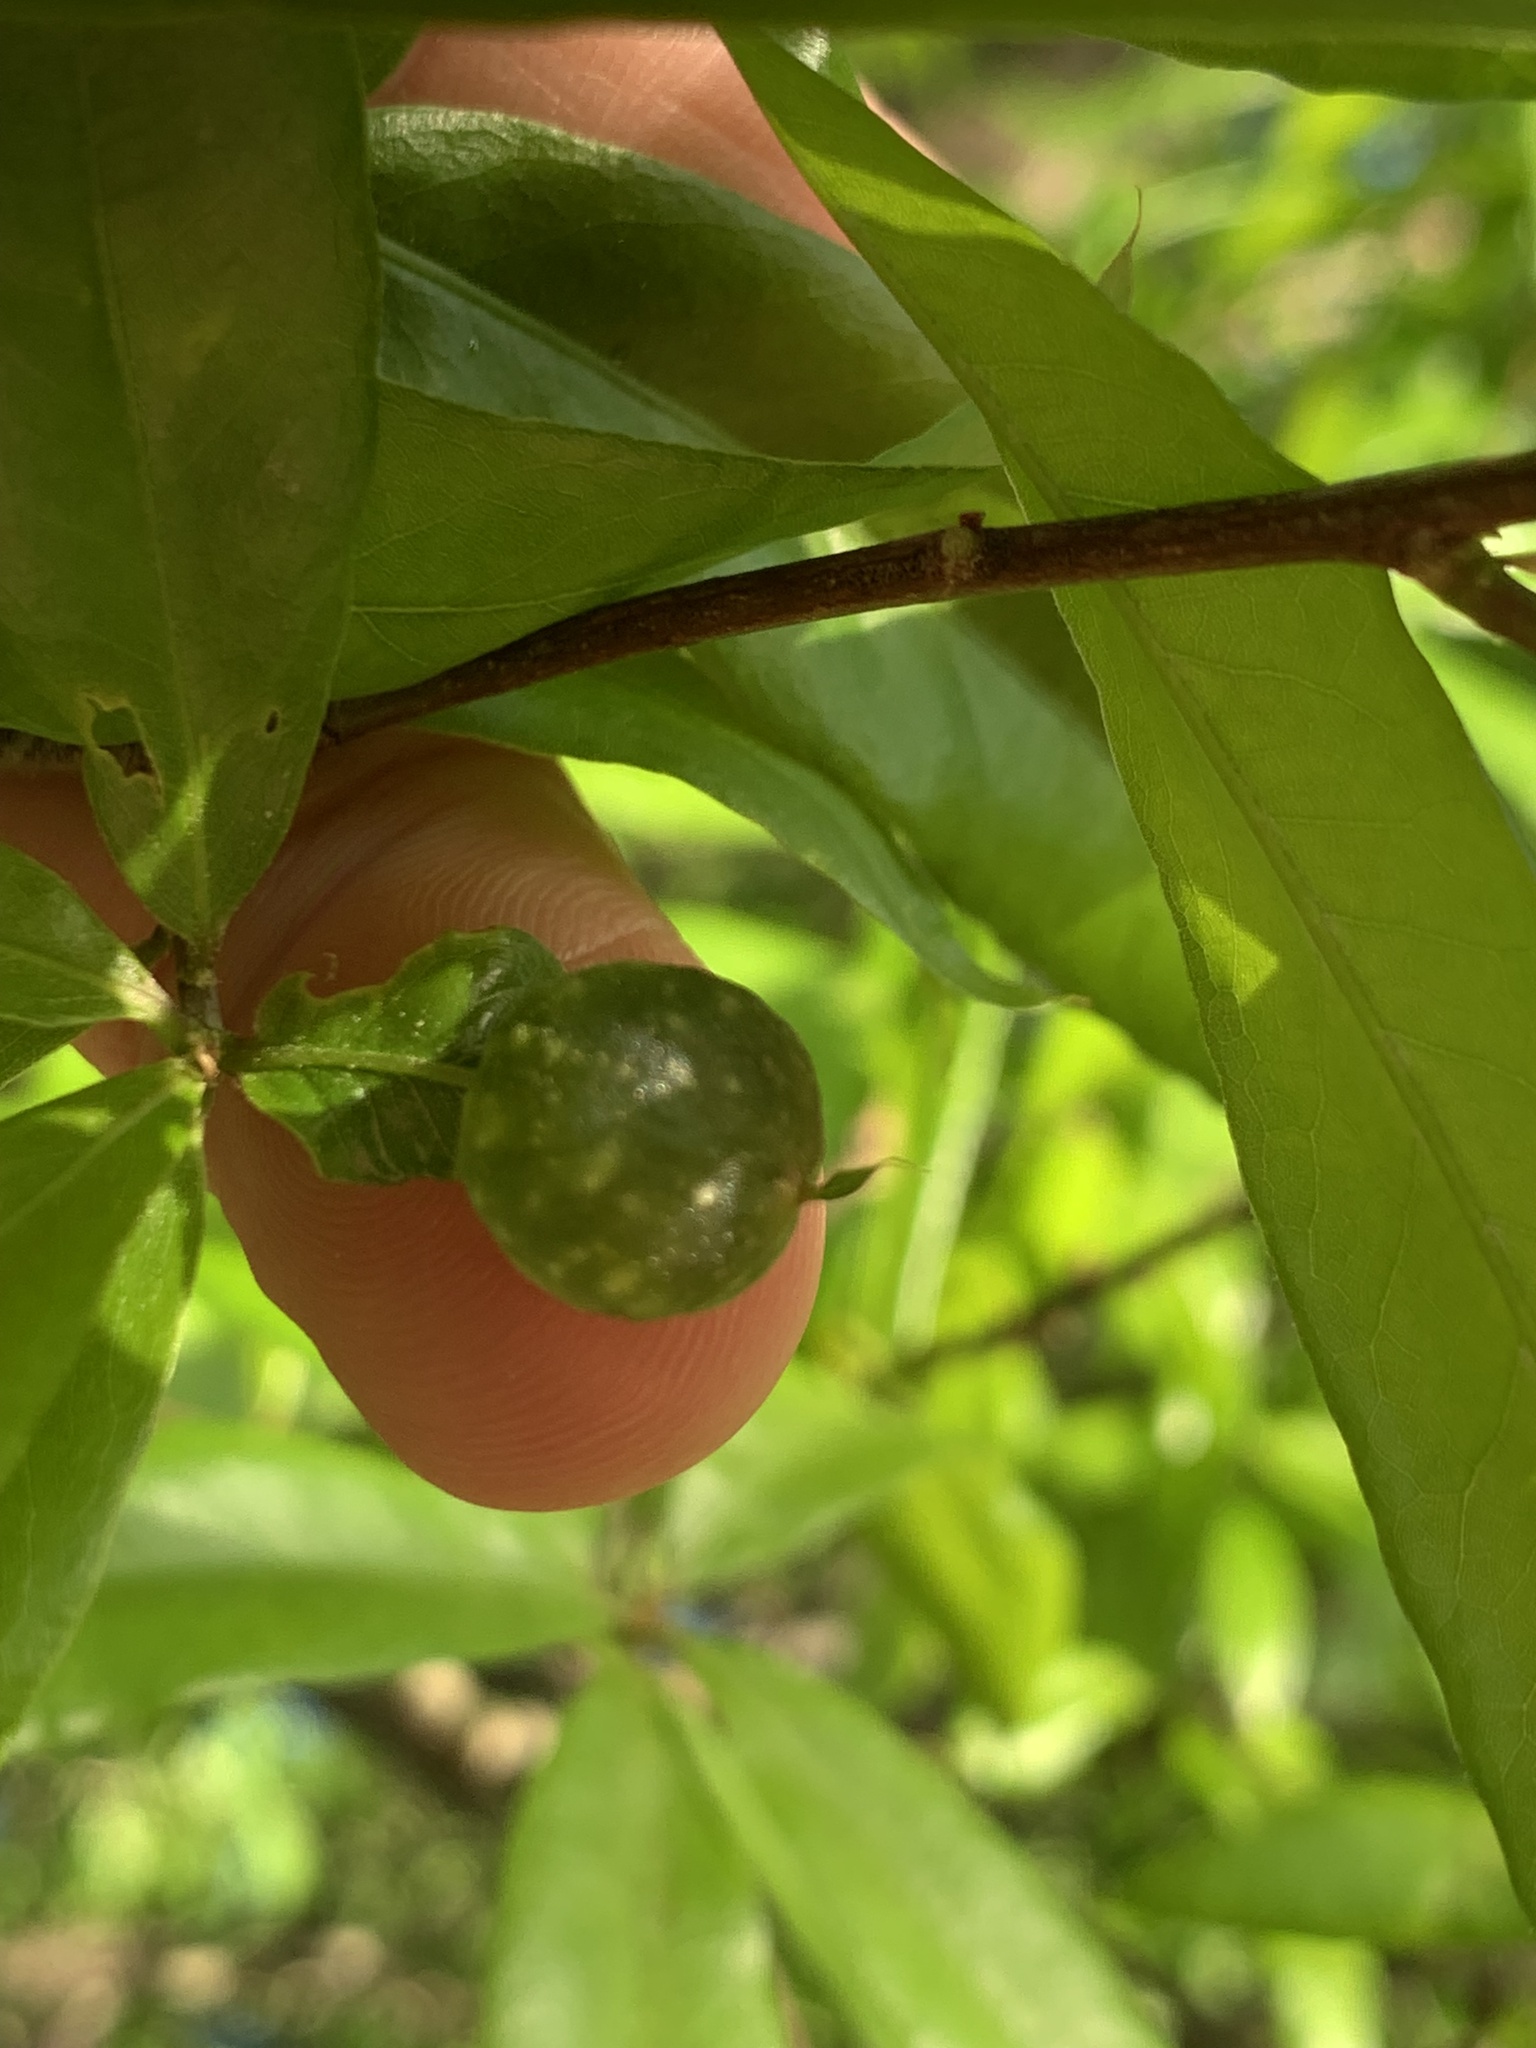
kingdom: Animalia
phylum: Arthropoda
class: Insecta
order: Hymenoptera
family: Cynipidae
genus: Dryocosmus
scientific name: Dryocosmus
